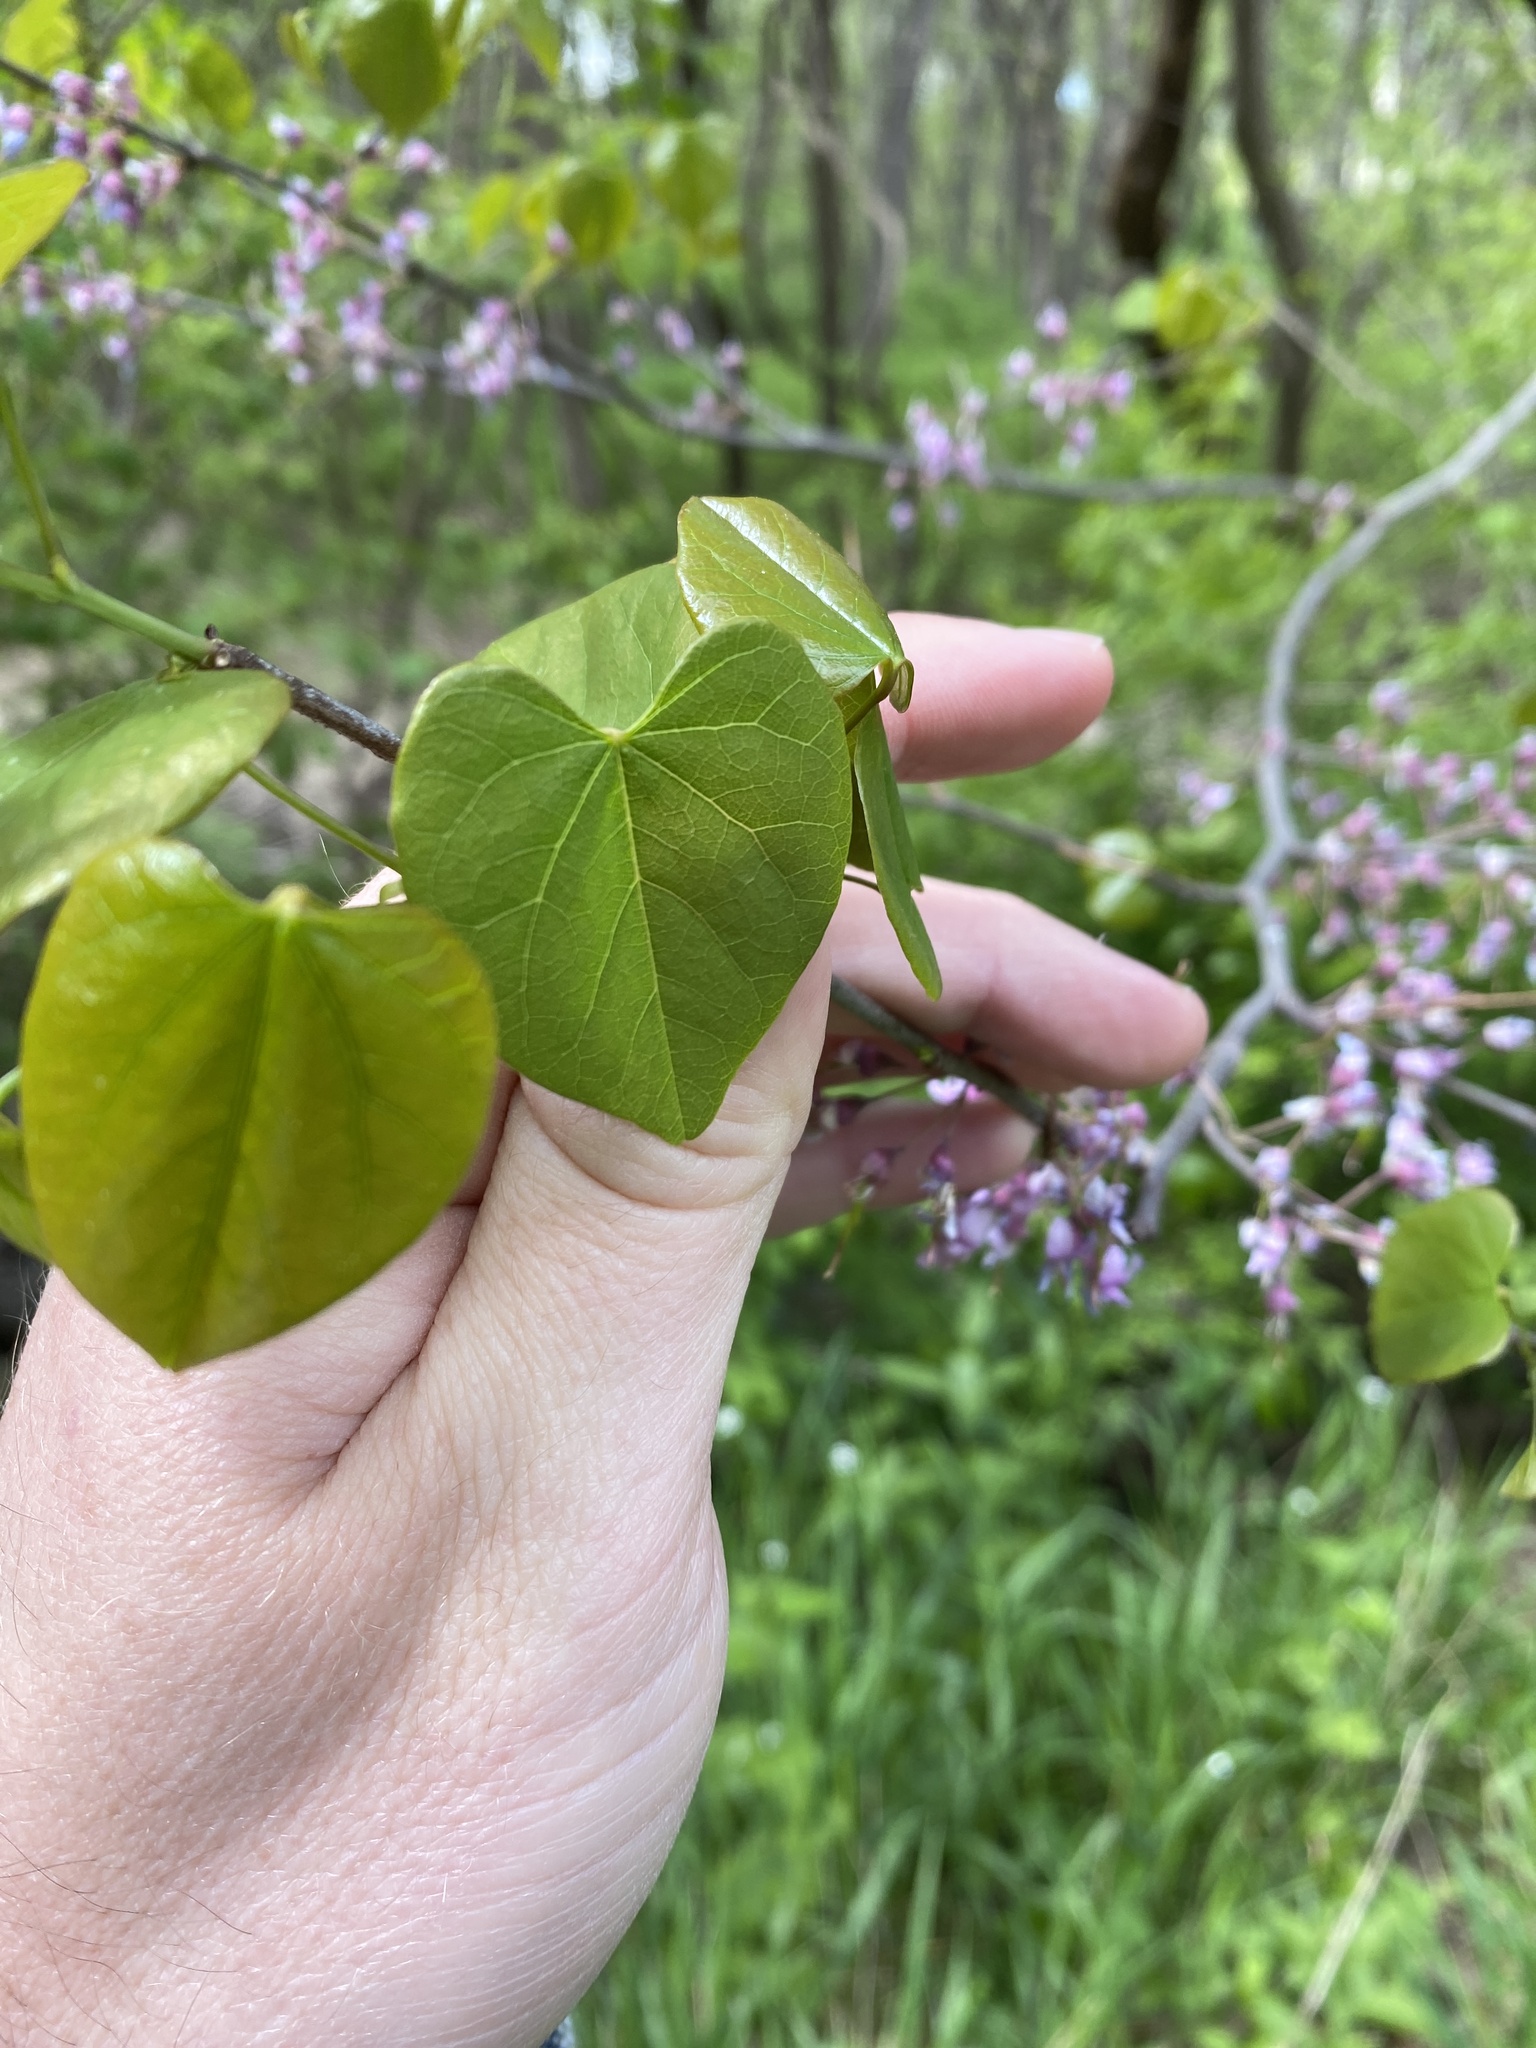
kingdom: Plantae
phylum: Tracheophyta
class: Magnoliopsida
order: Fabales
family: Fabaceae
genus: Cercis
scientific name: Cercis canadensis
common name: Eastern redbud
